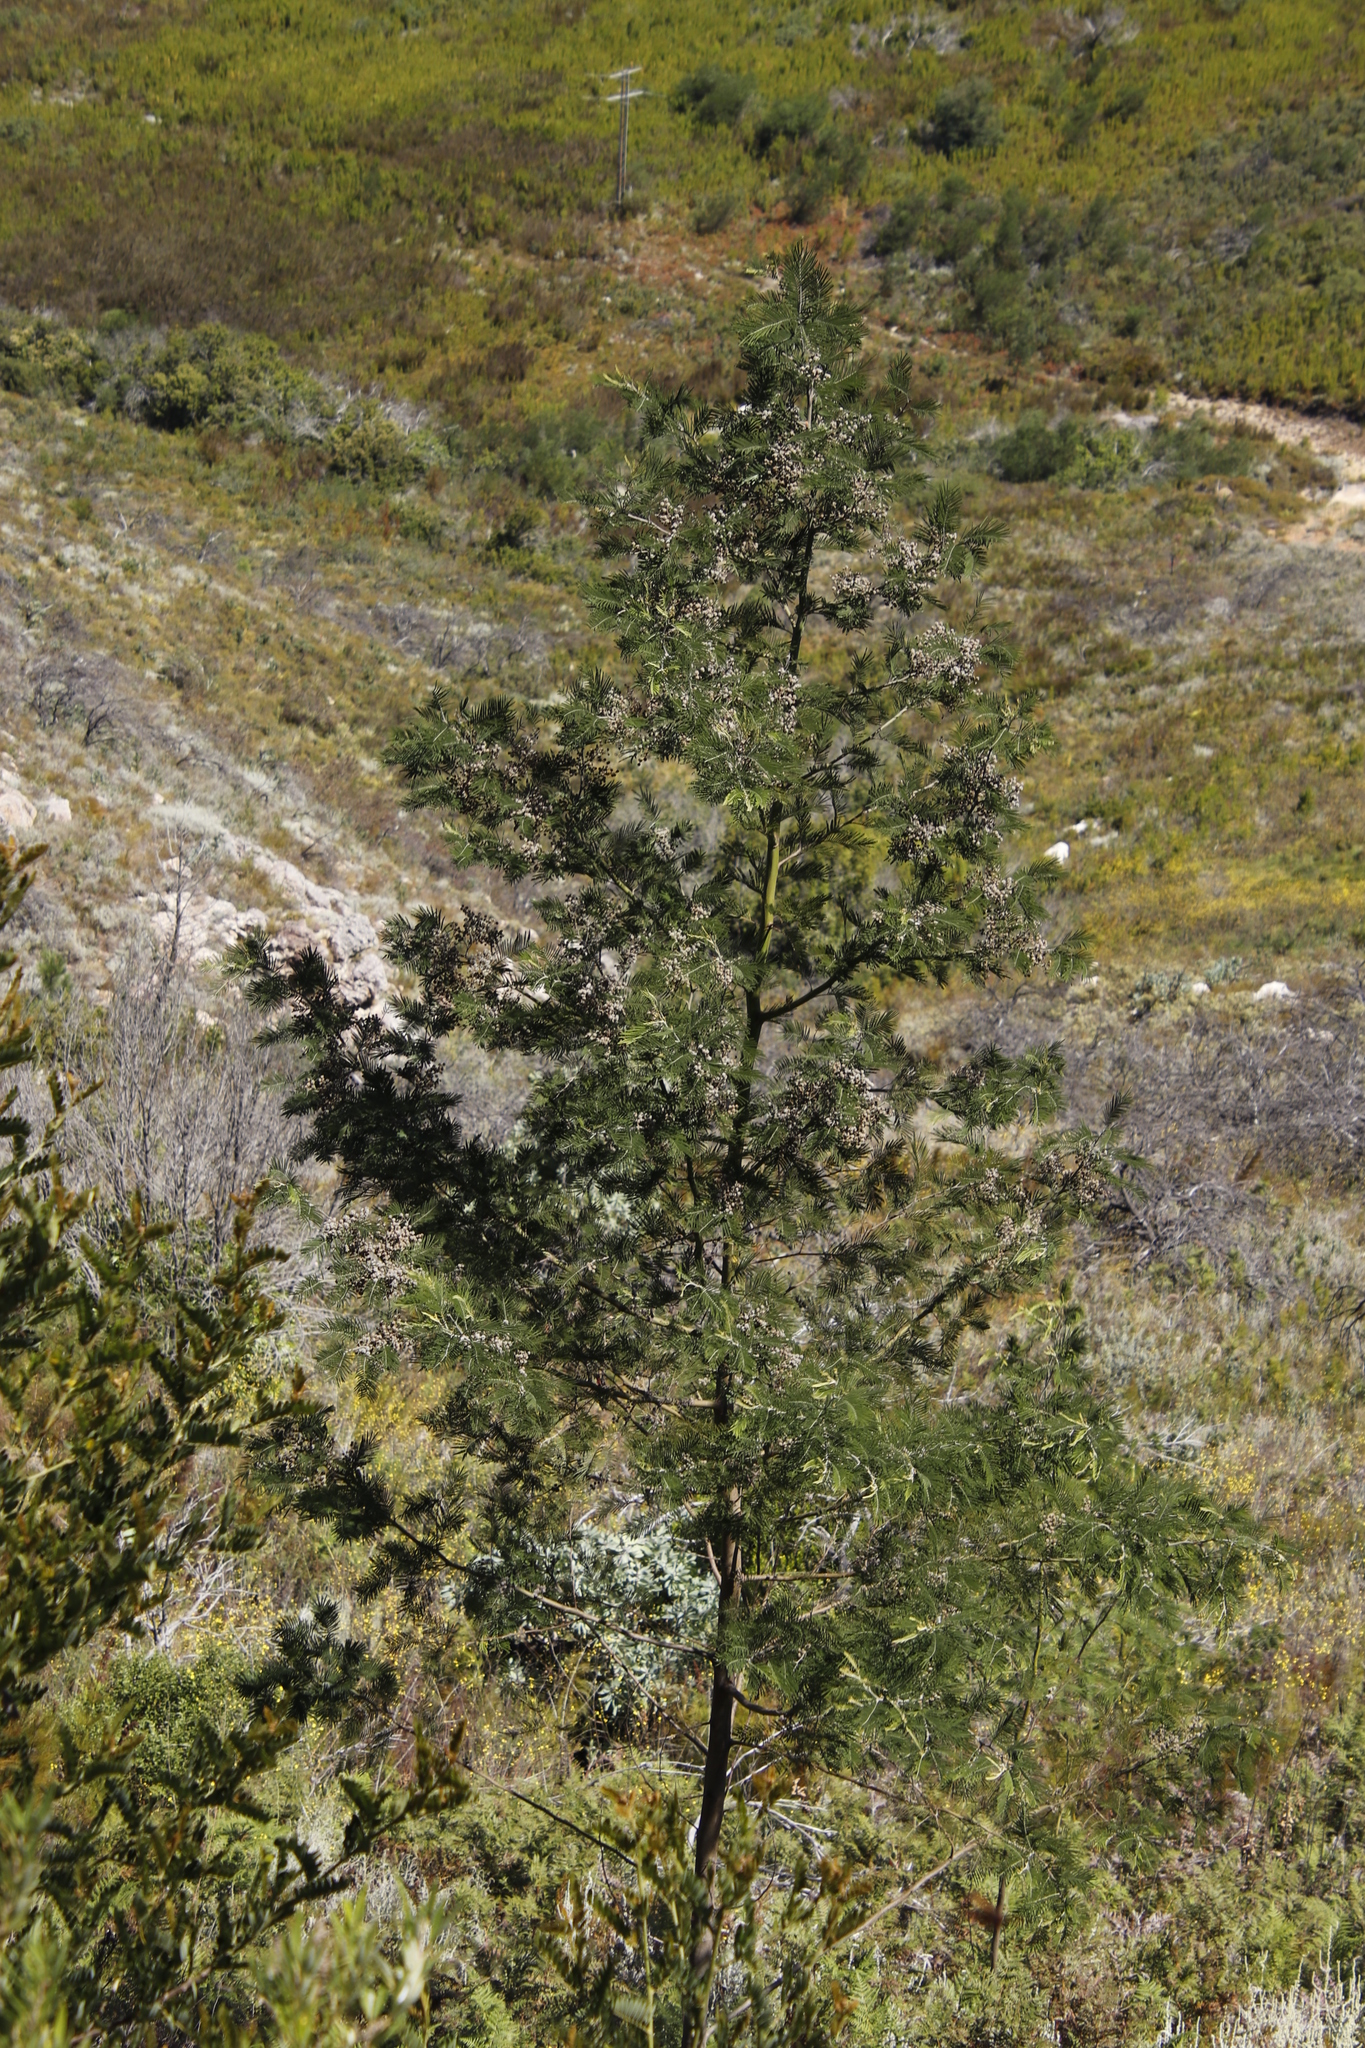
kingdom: Plantae
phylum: Tracheophyta
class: Magnoliopsida
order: Fabales
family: Fabaceae
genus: Acacia
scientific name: Acacia mearnsii
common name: Black wattle
